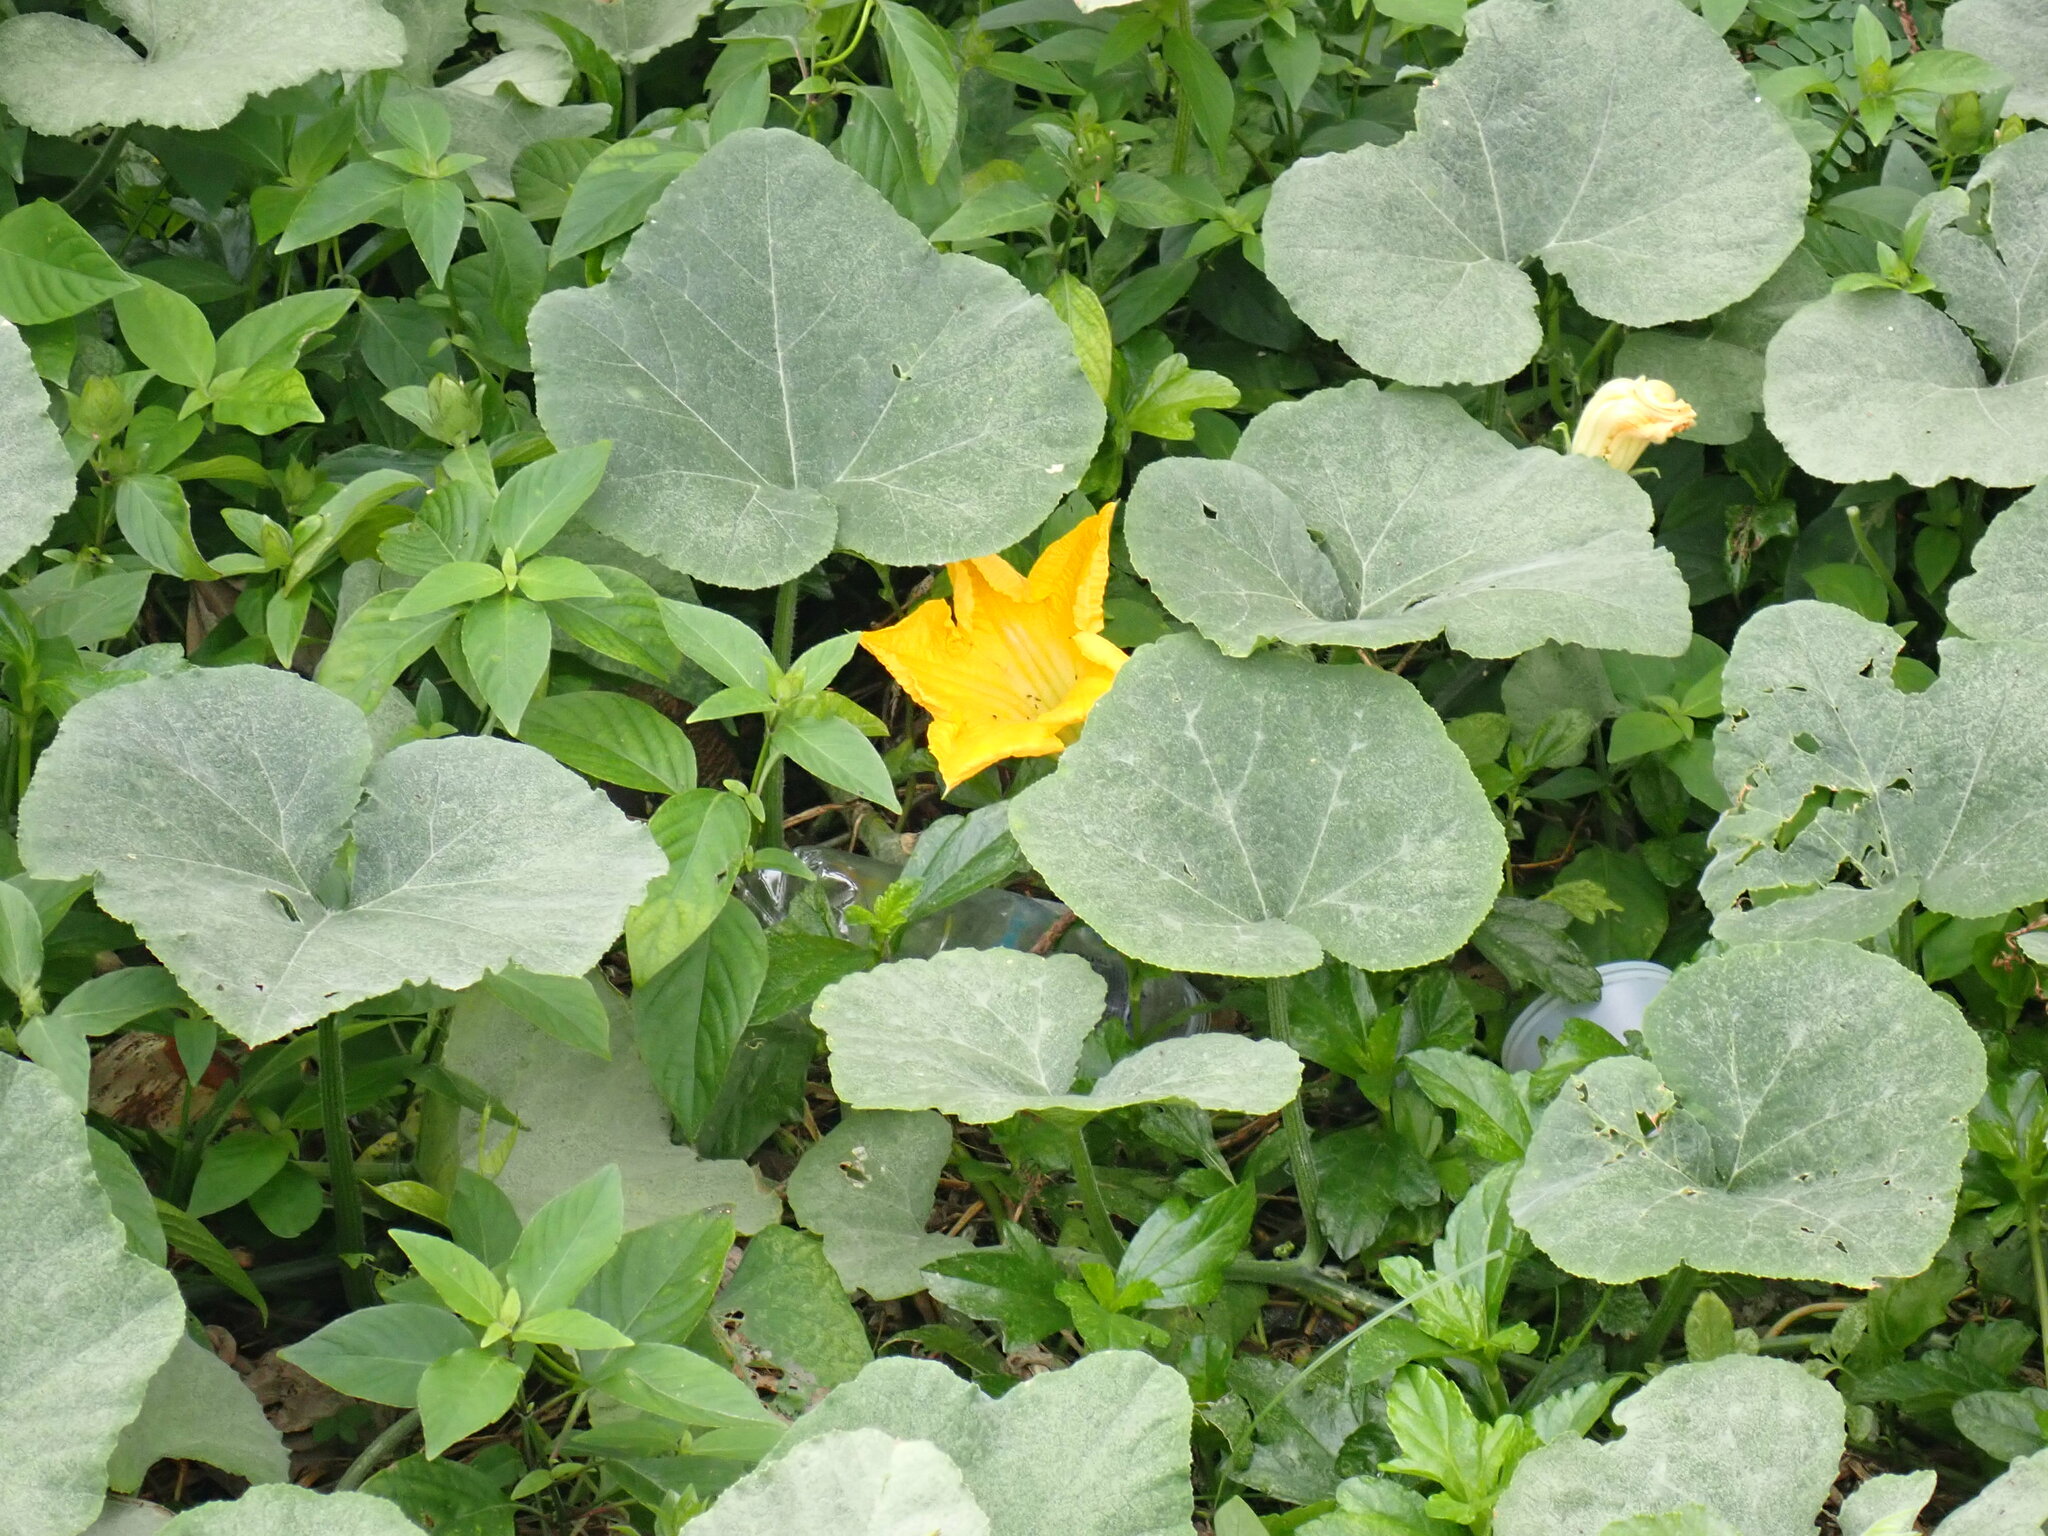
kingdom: Plantae
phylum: Tracheophyta
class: Magnoliopsida
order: Cucurbitales
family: Cucurbitaceae
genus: Cucurbita
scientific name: Cucurbita moschata
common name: Squash / pumpkin
